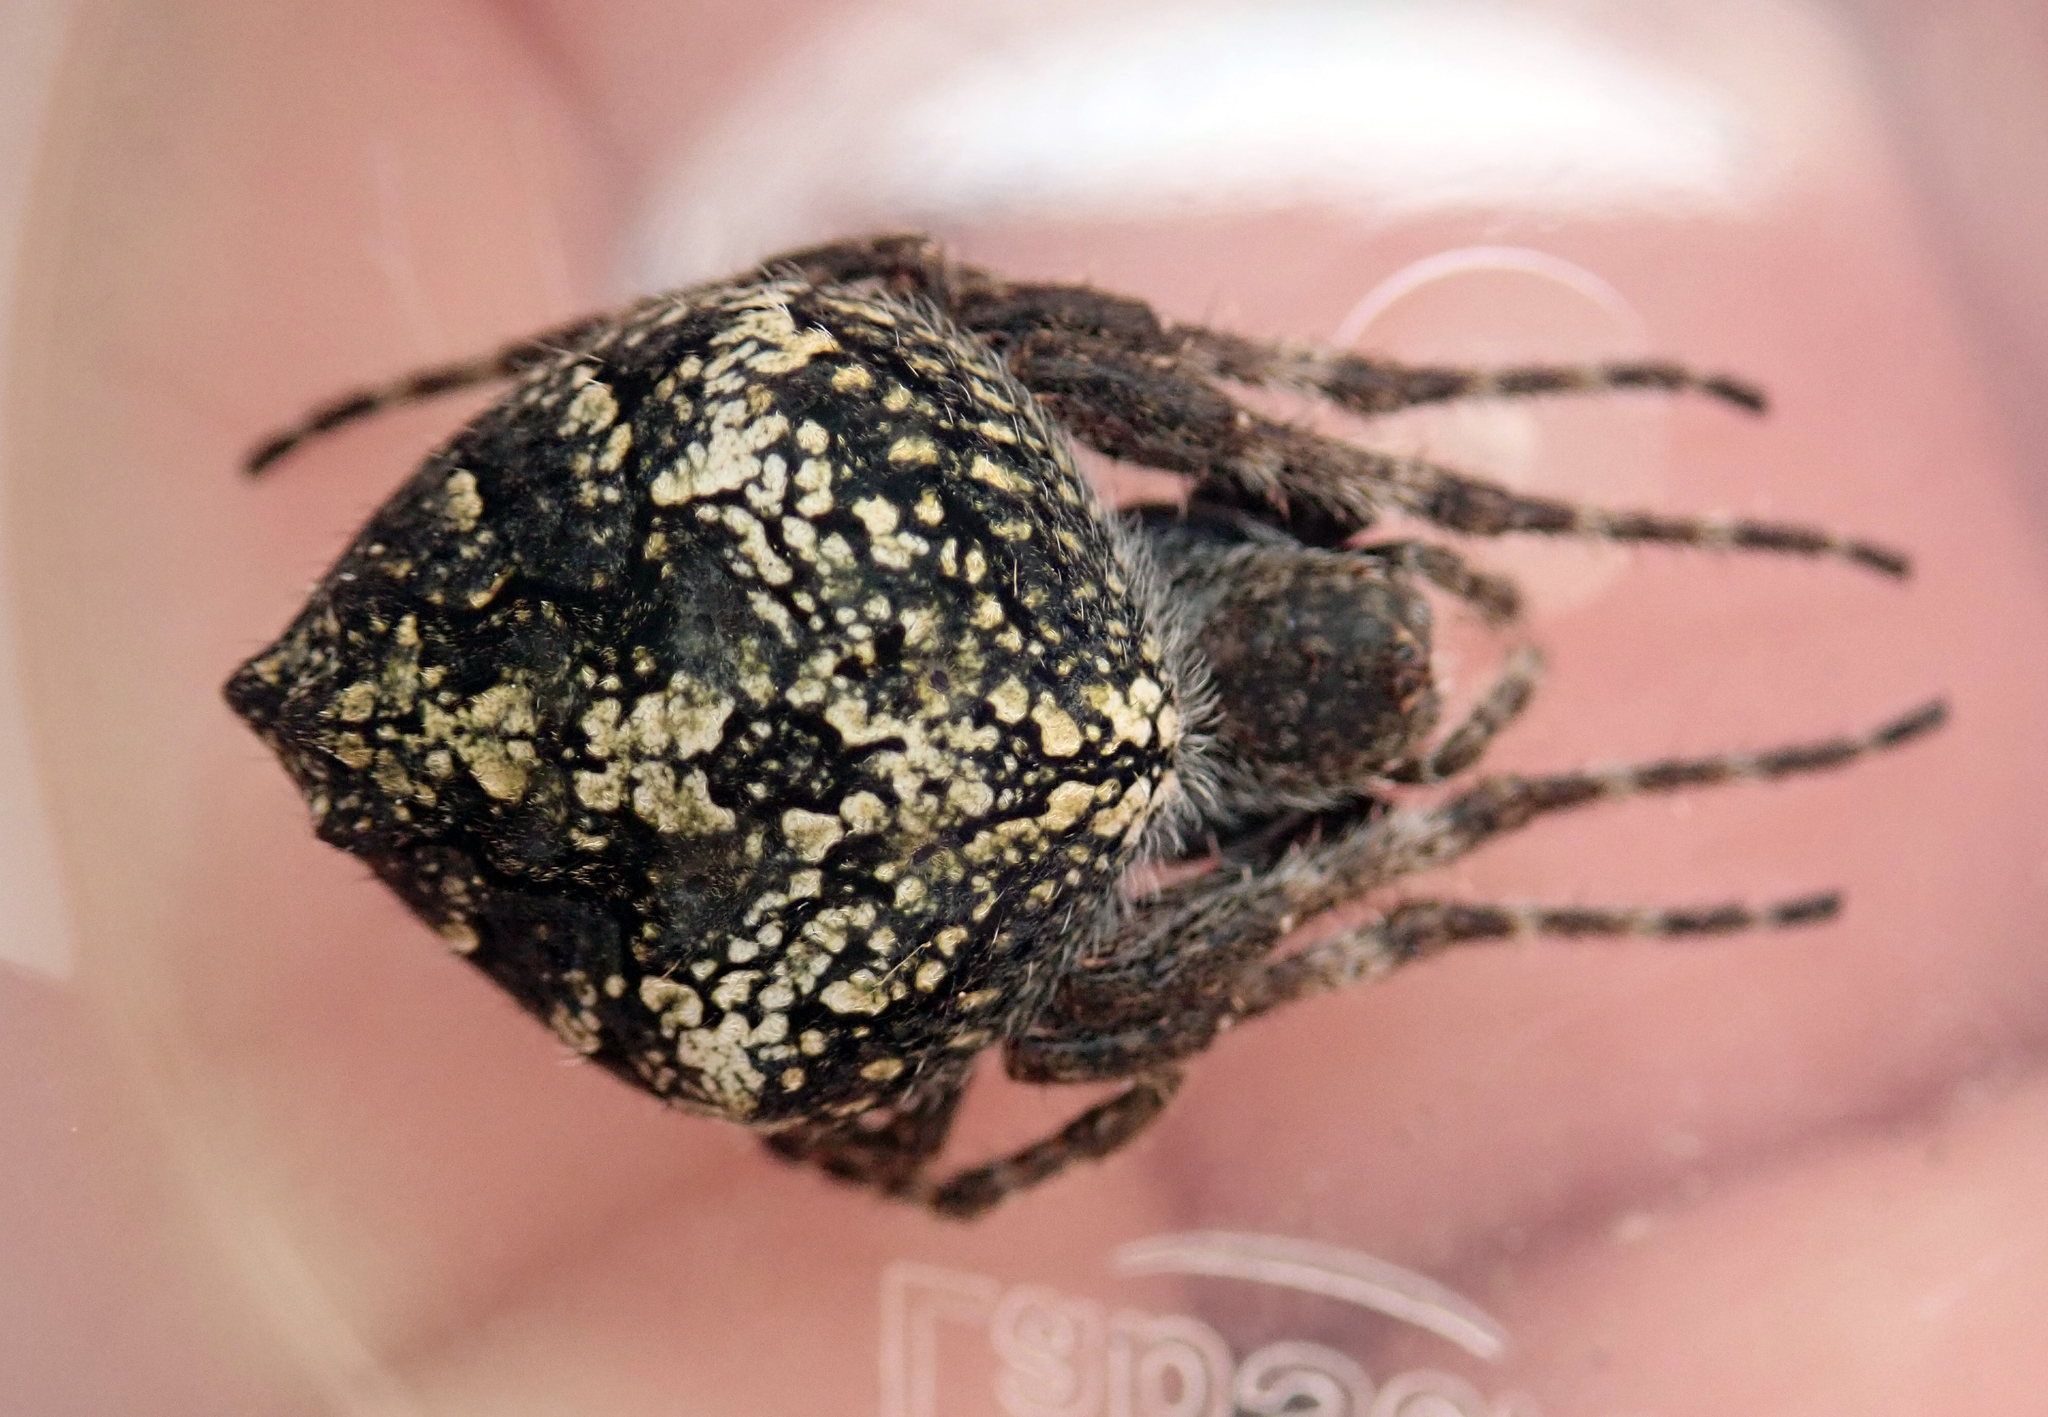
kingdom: Animalia
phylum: Arthropoda
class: Arachnida
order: Araneae
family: Araneidae
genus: Eriophora
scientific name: Eriophora pustulosa
